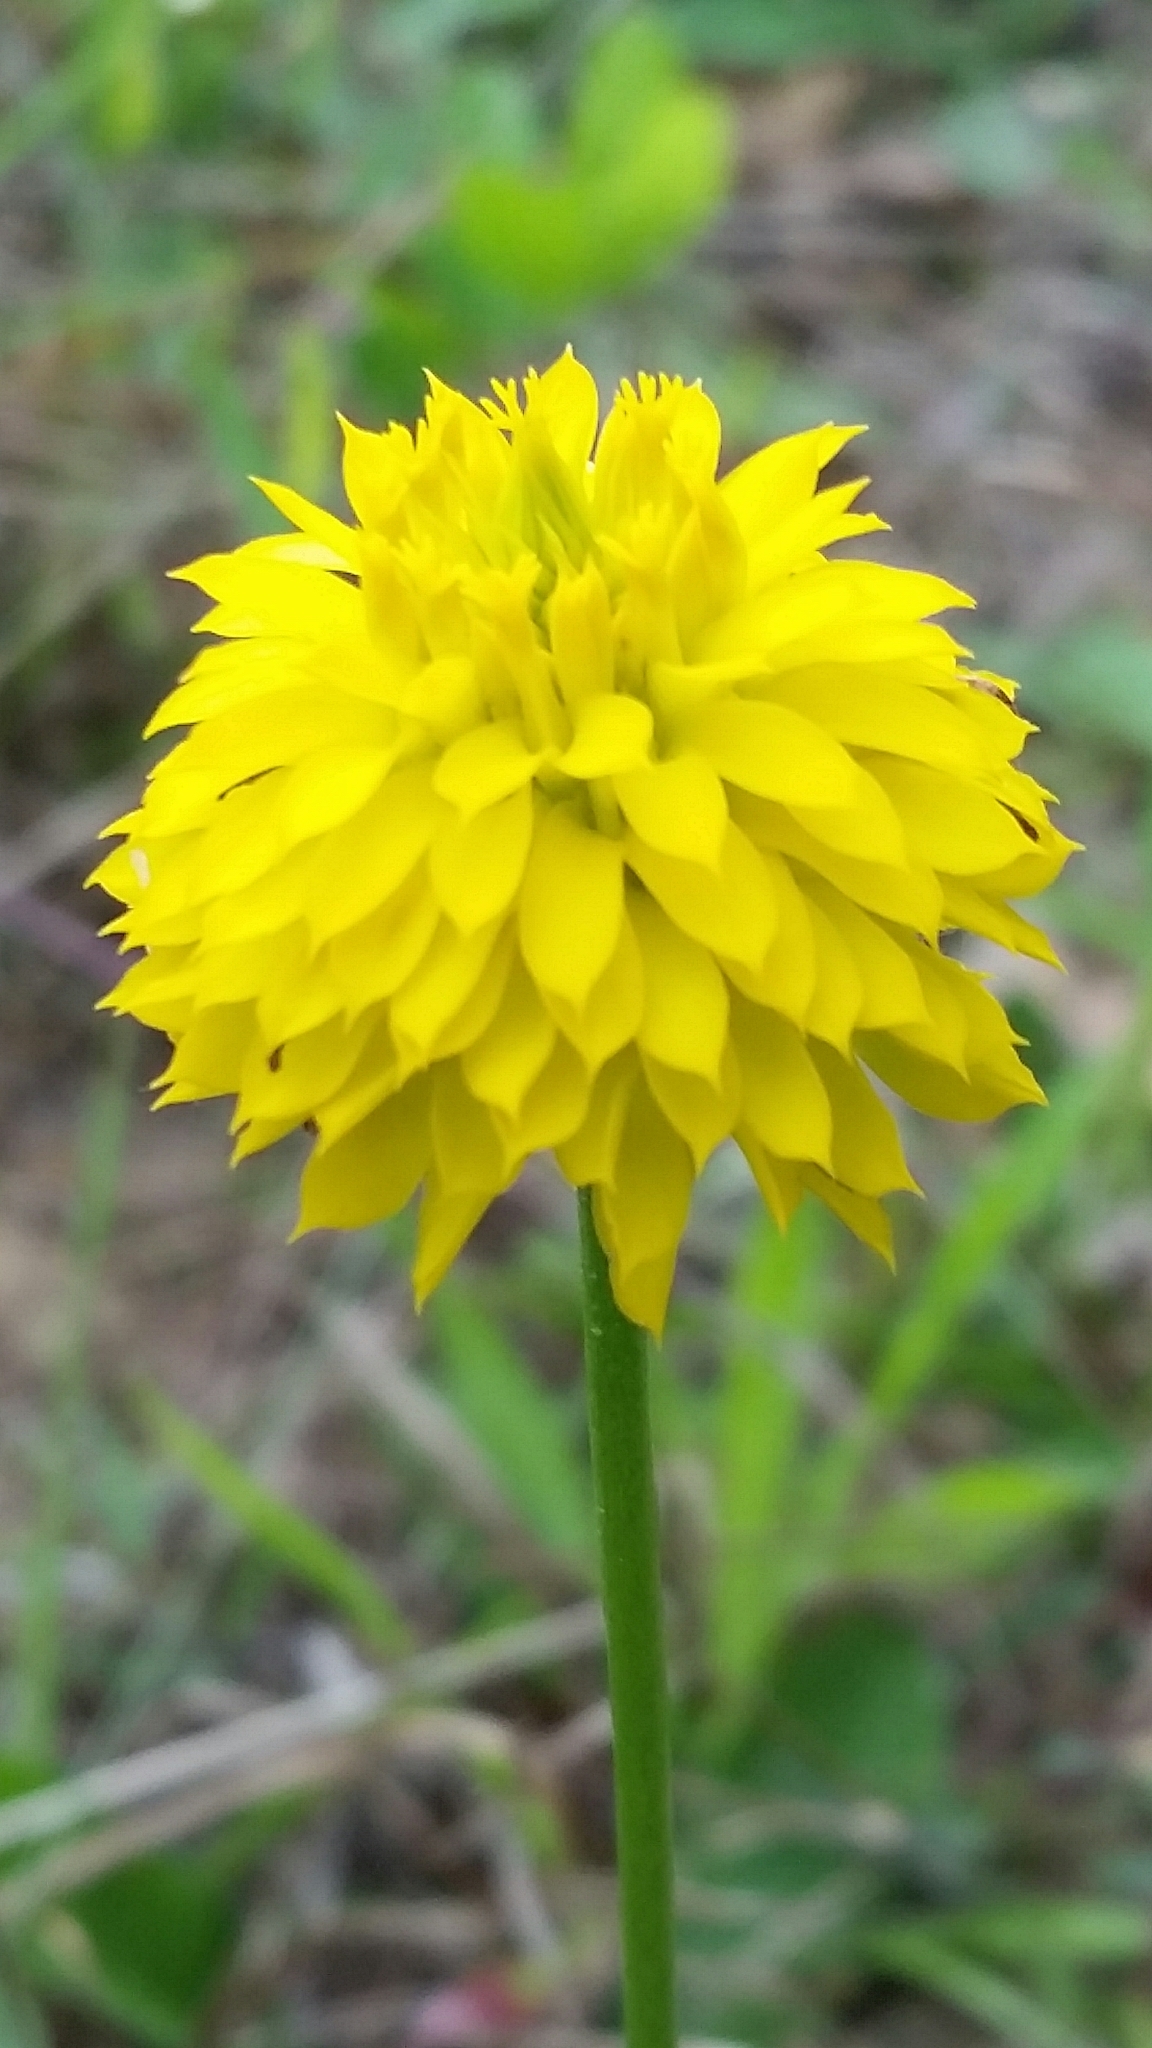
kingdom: Plantae
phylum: Tracheophyta
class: Magnoliopsida
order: Fabales
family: Polygalaceae
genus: Polygala
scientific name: Polygala rugelii
